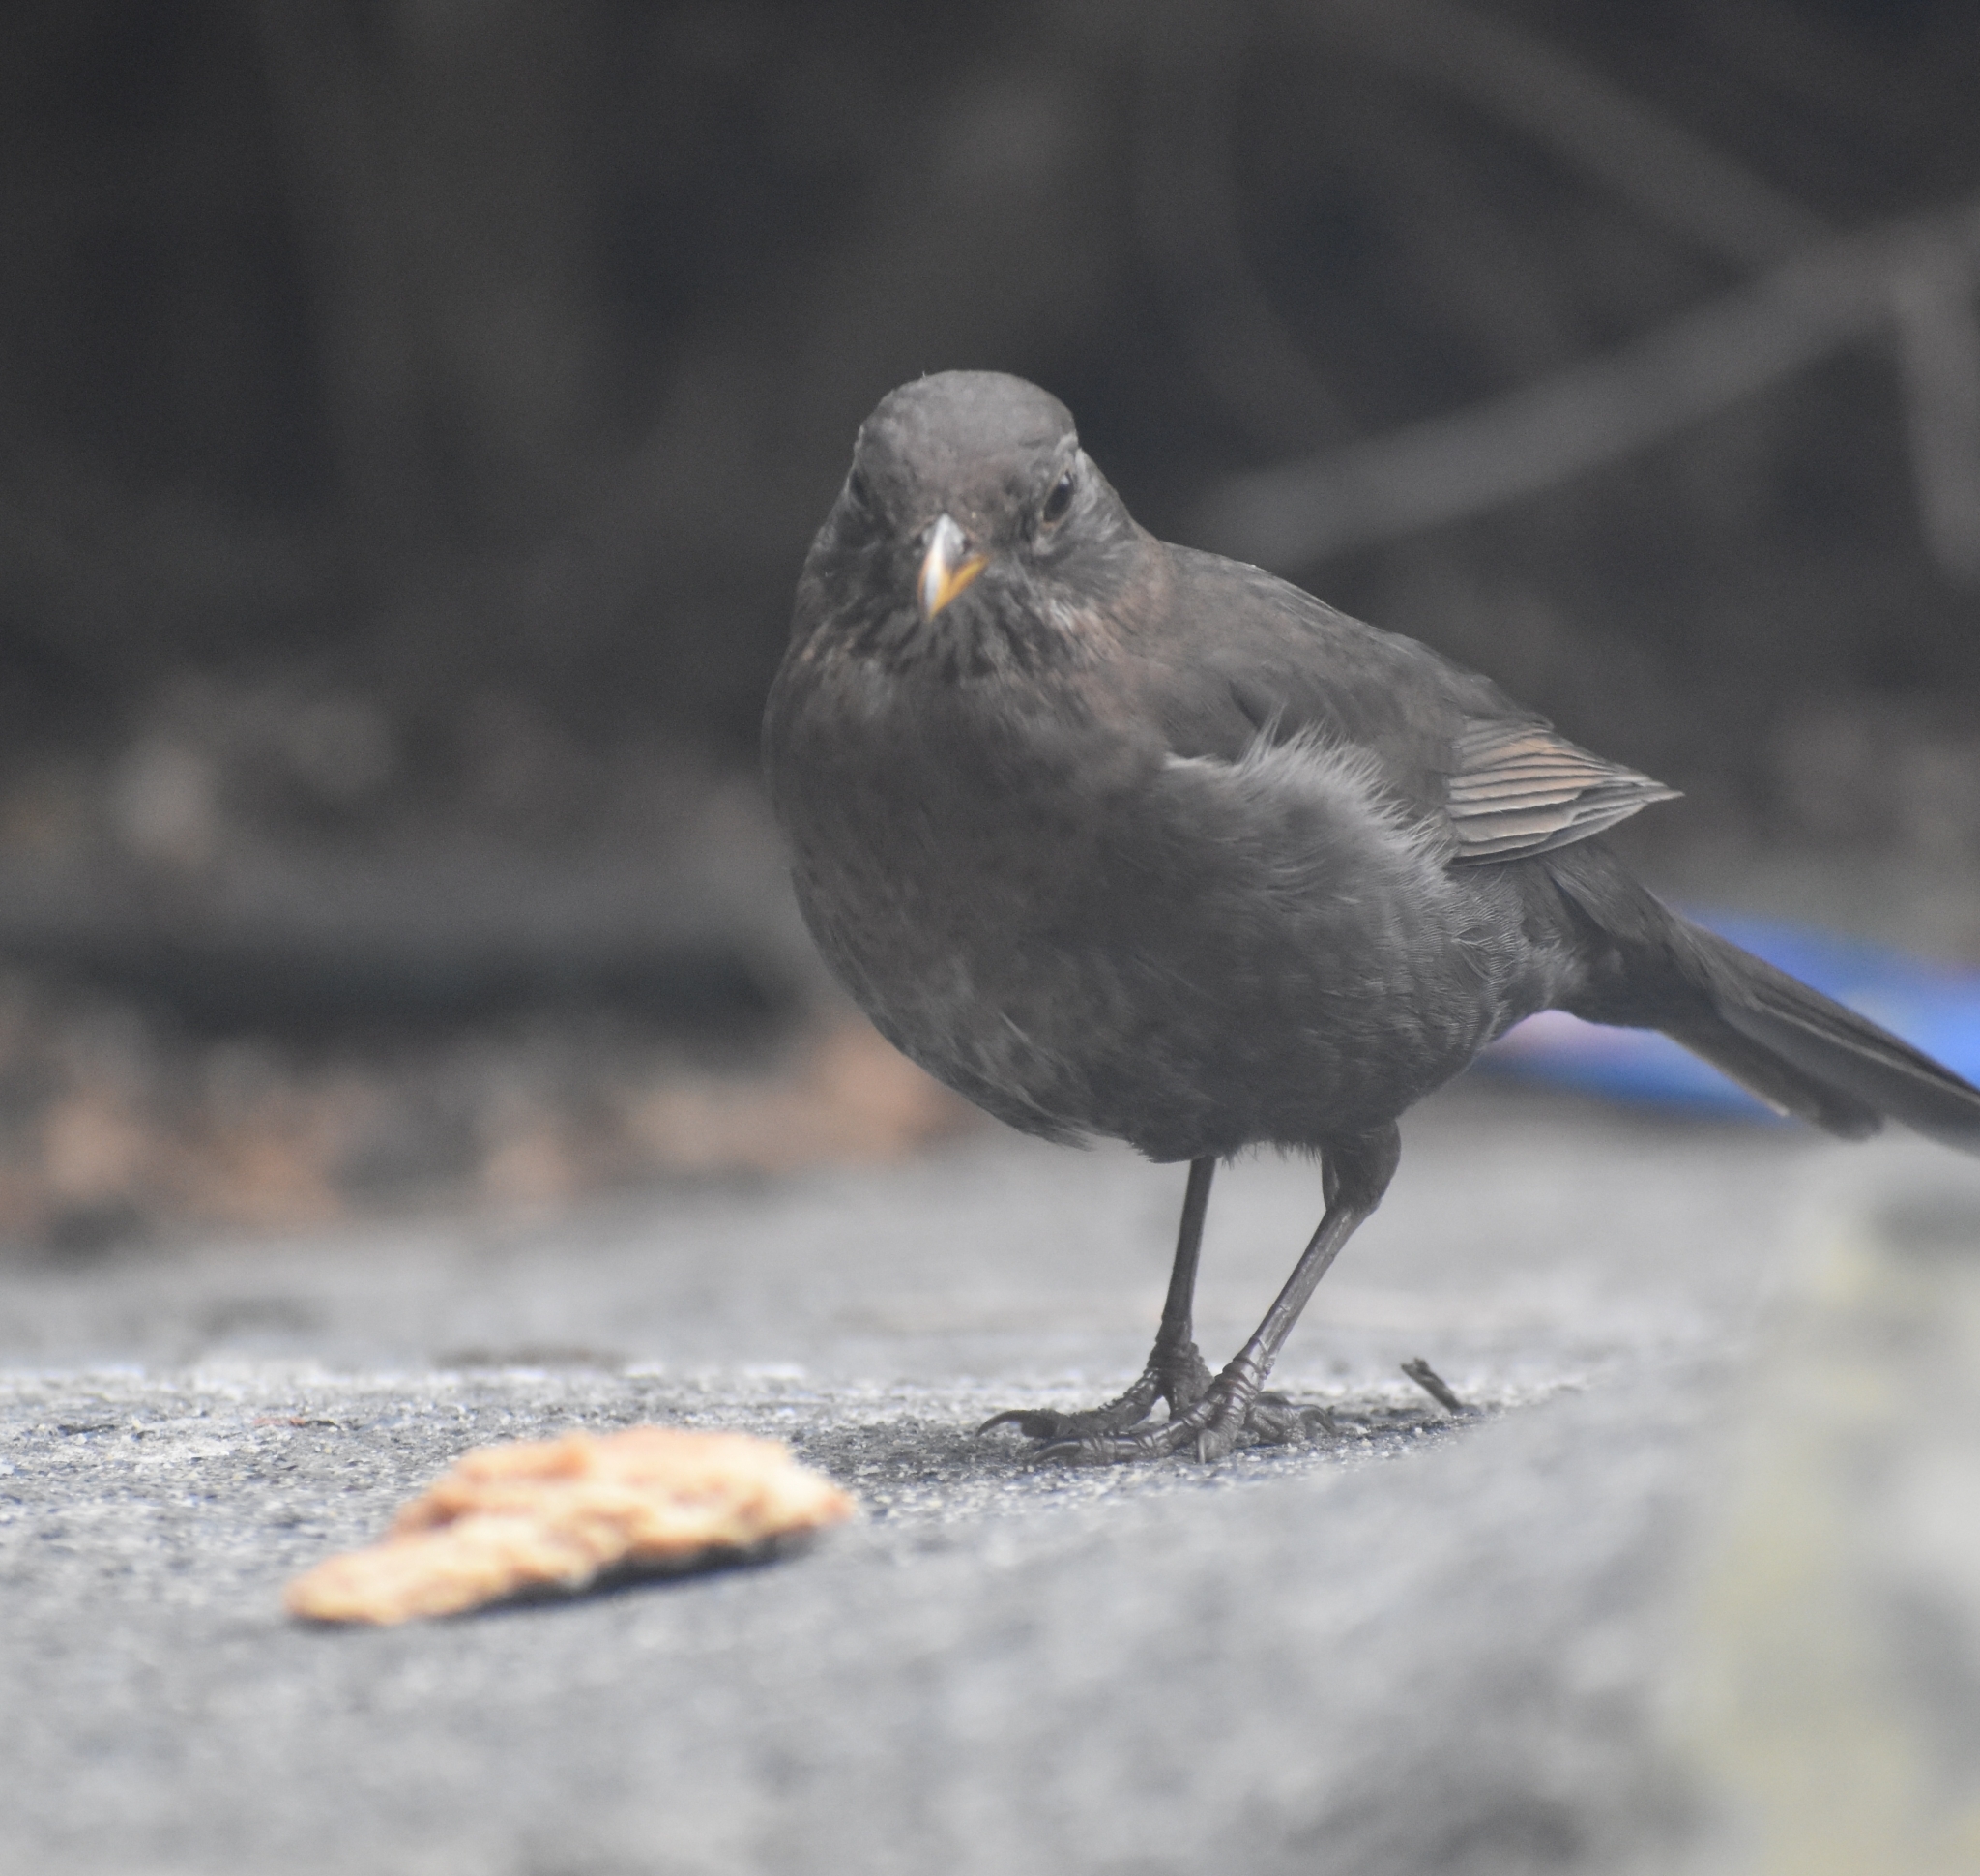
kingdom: Animalia
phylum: Chordata
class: Aves
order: Passeriformes
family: Turdidae
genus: Turdus
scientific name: Turdus merula
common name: Common blackbird
